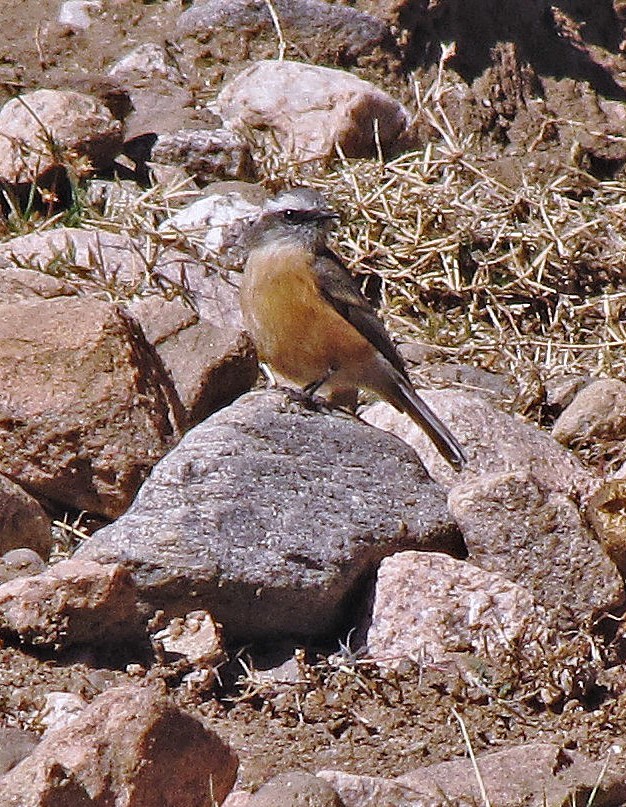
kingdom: Animalia
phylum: Chordata
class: Aves
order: Passeriformes
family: Tyrannidae
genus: Ochthoeca
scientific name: Ochthoeca oenanthoides
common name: D'orbigny's chat-tyrant
